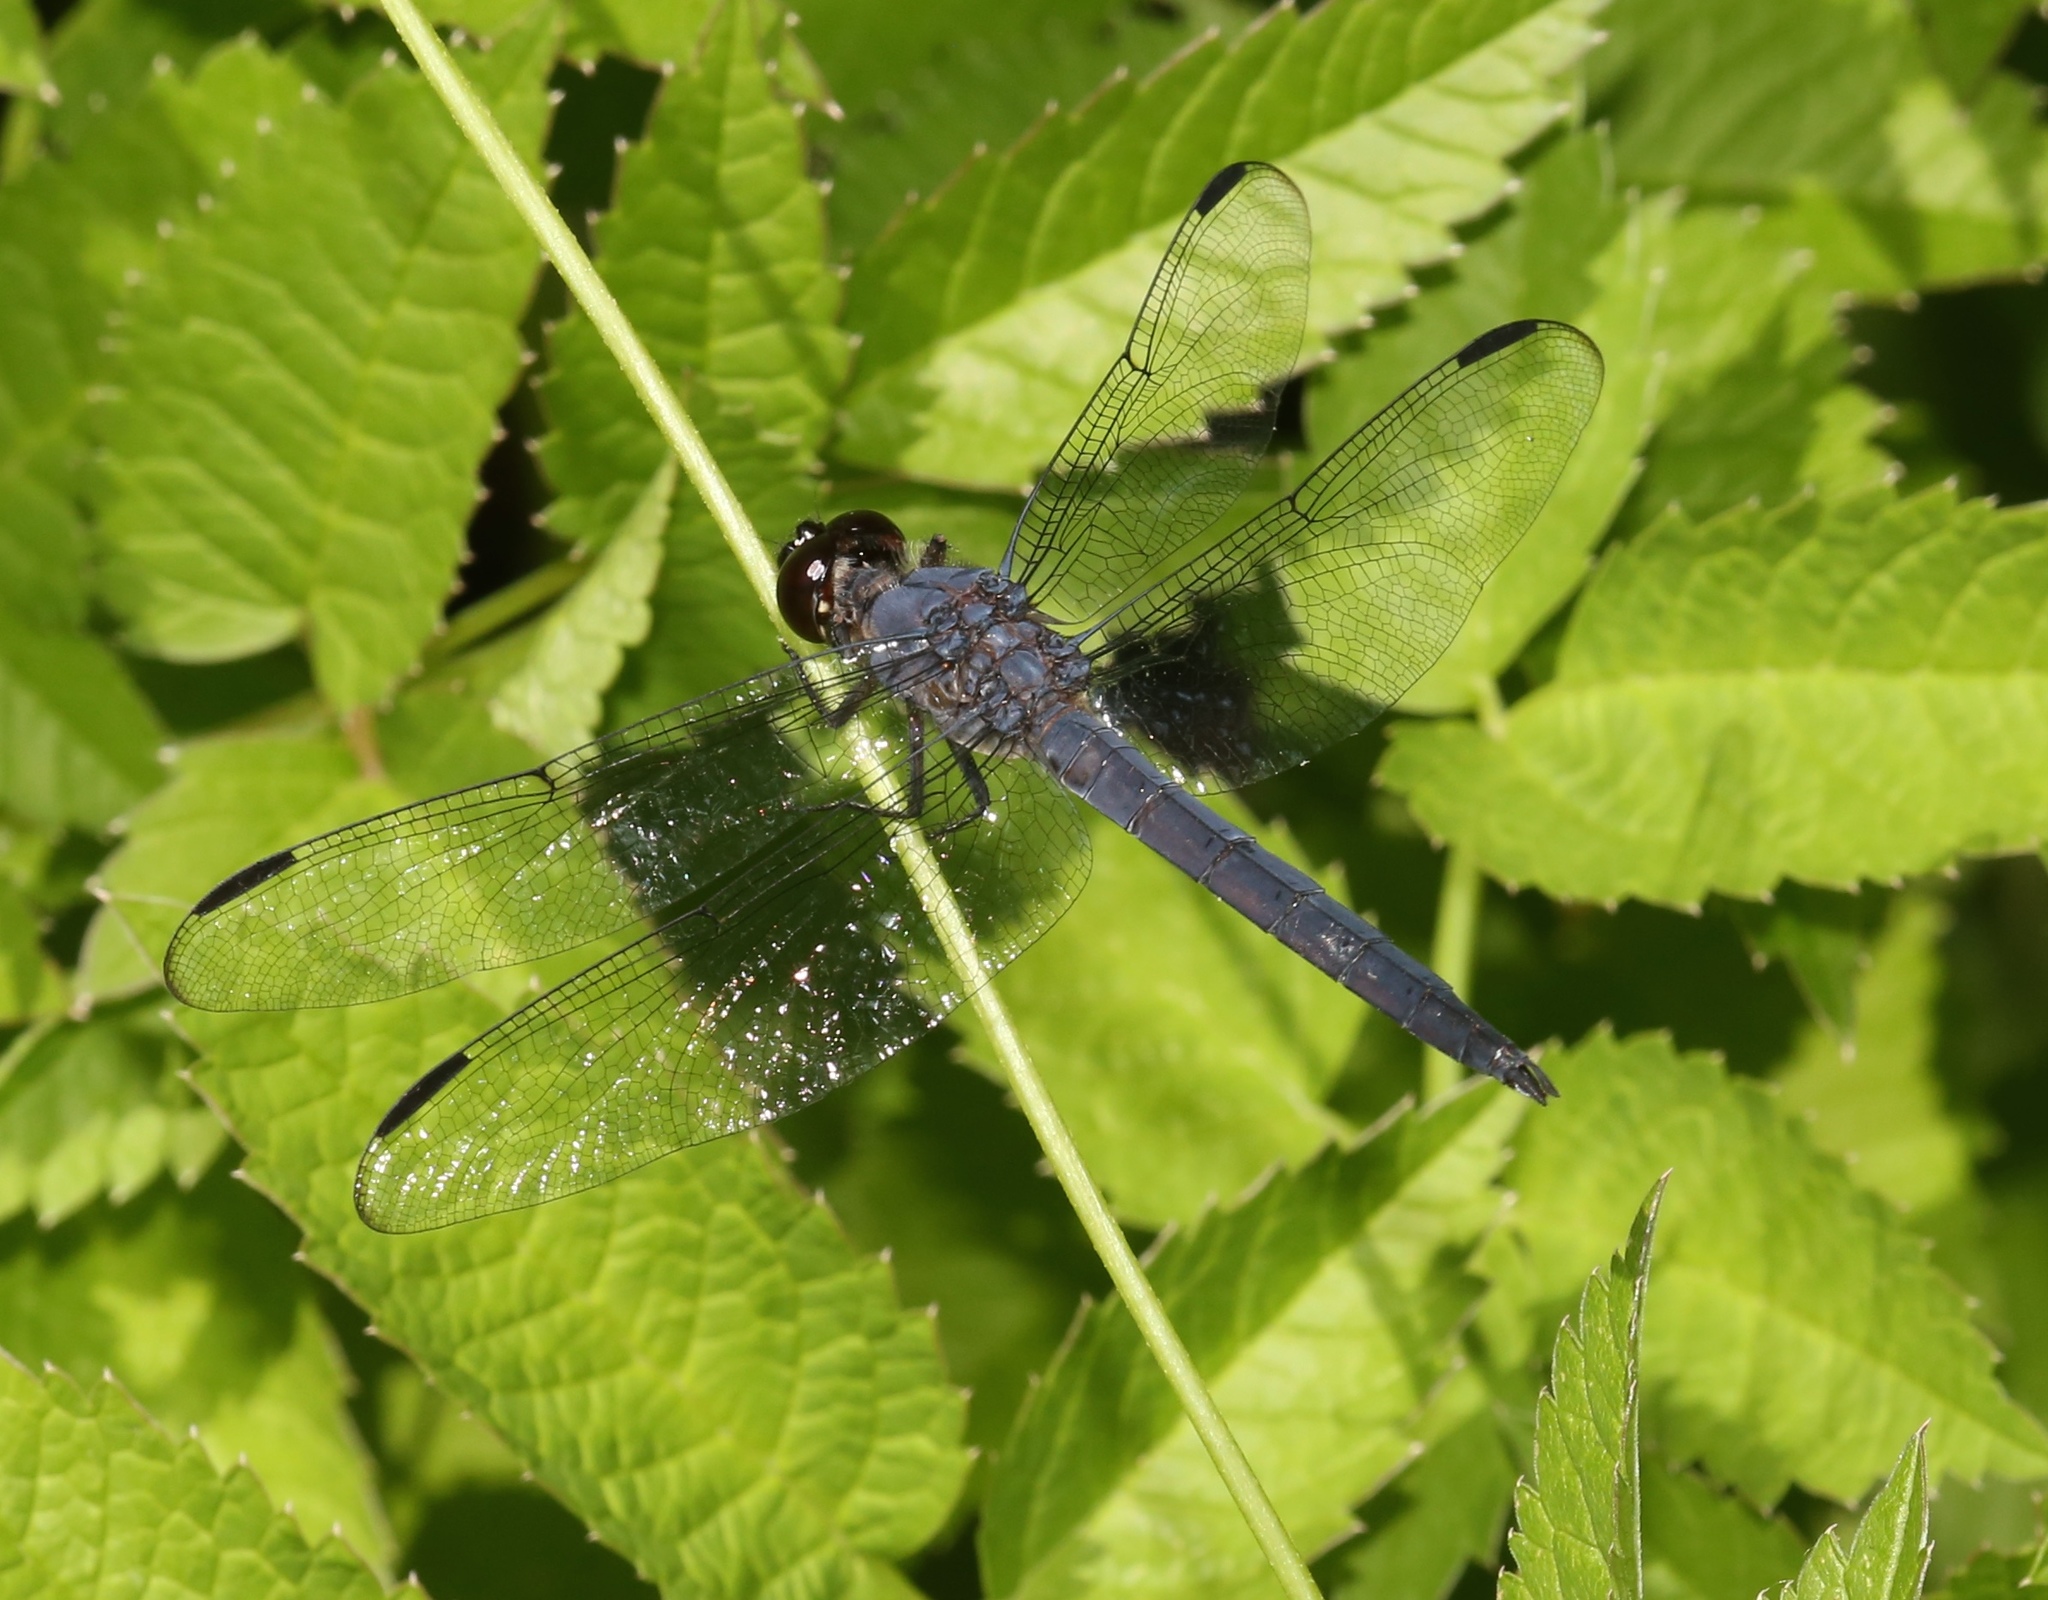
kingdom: Animalia
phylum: Arthropoda
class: Insecta
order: Odonata
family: Libellulidae
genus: Libellula
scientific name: Libellula incesta
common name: Slaty skimmer
